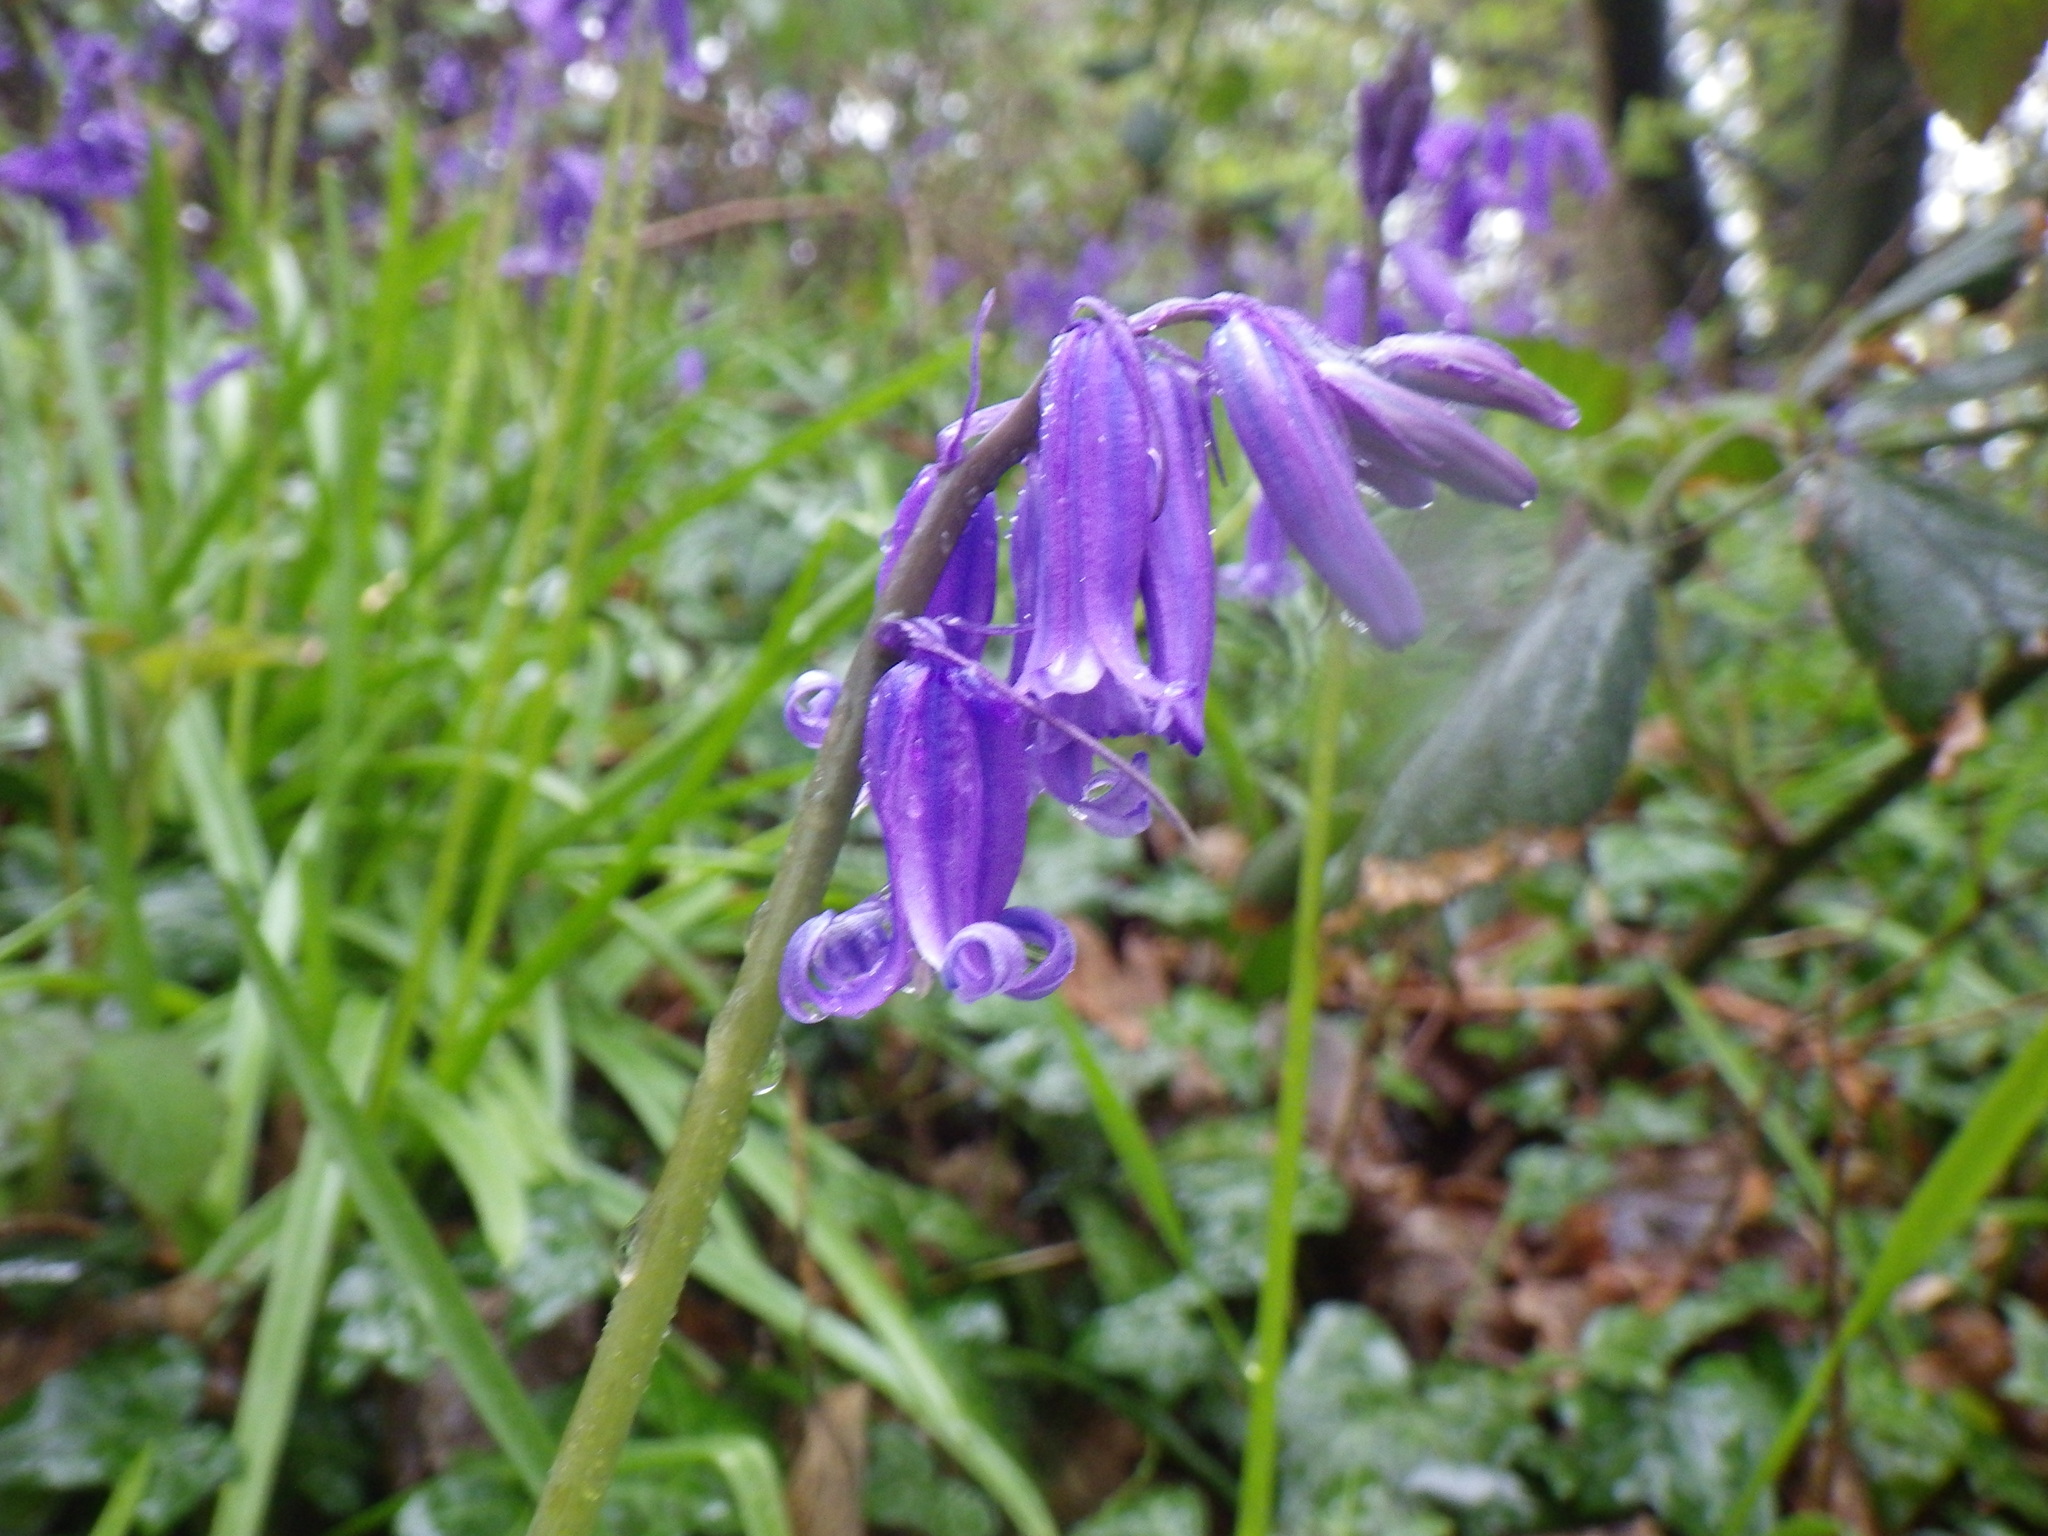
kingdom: Plantae
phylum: Tracheophyta
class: Liliopsida
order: Asparagales
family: Asparagaceae
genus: Hyacinthoides
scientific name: Hyacinthoides non-scripta
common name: Bluebell
